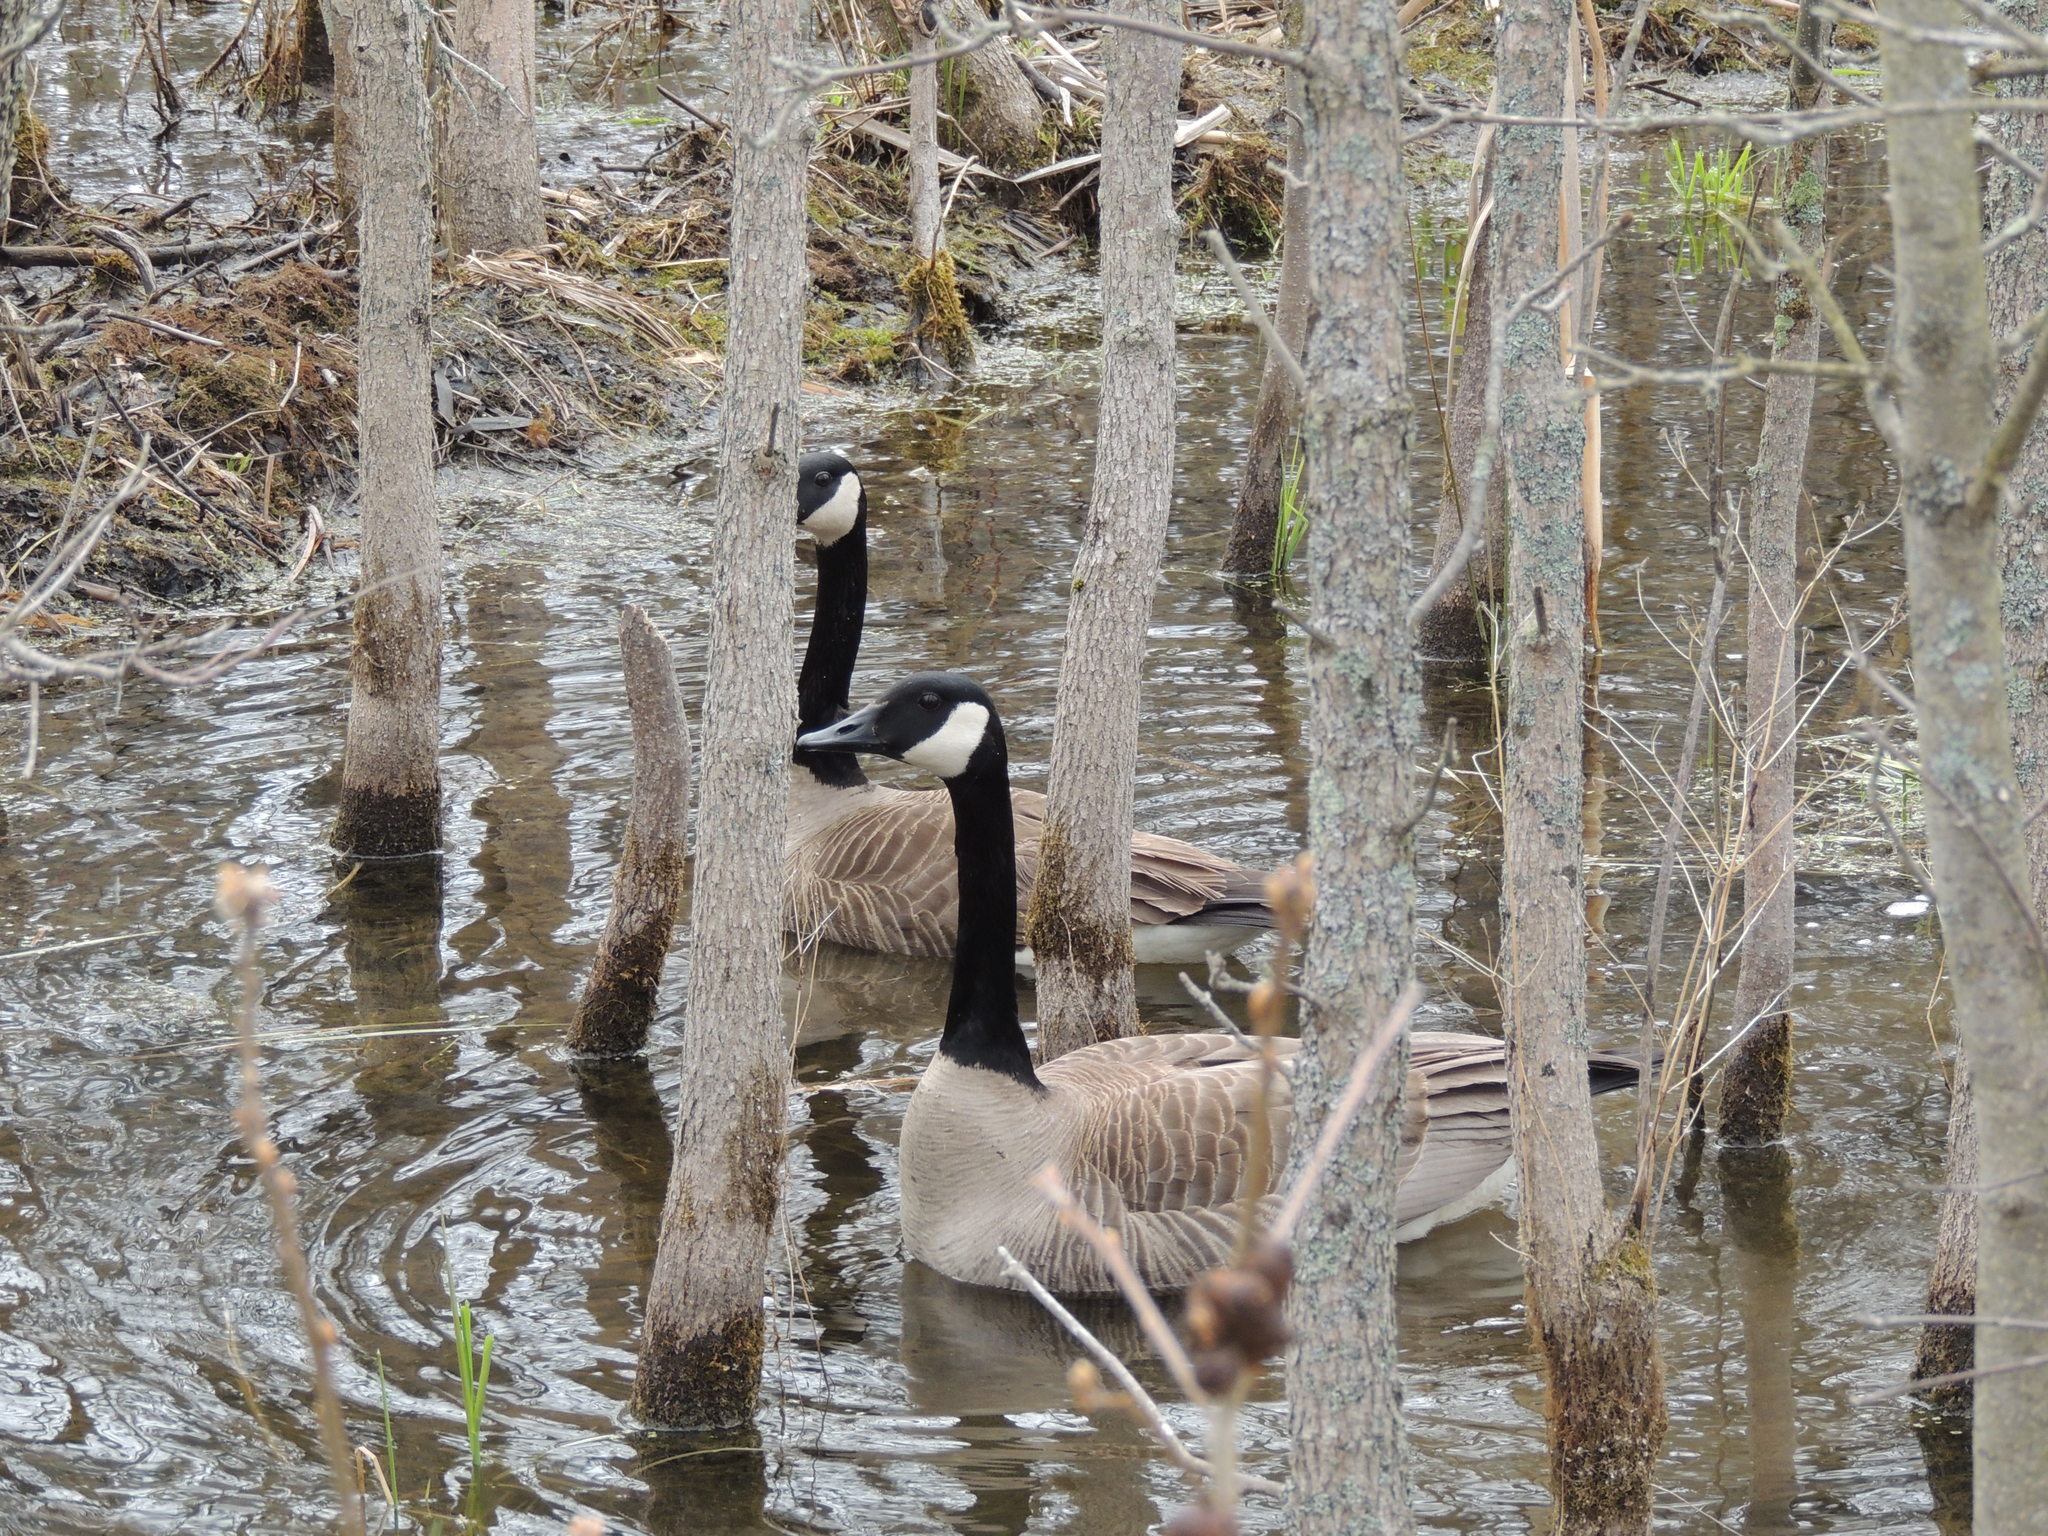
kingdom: Animalia
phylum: Chordata
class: Aves
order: Anseriformes
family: Anatidae
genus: Branta
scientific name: Branta canadensis
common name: Canada goose
